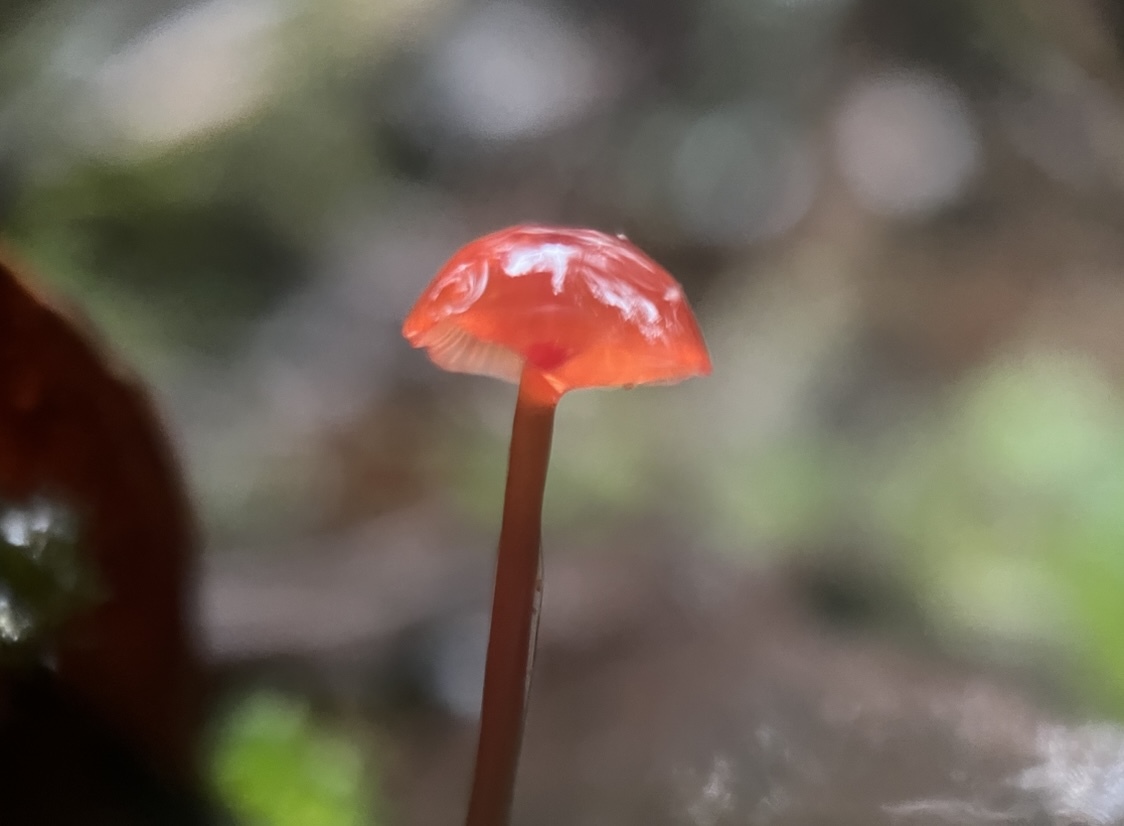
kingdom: Fungi
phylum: Basidiomycota
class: Agaricomycetes
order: Agaricales
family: Mycenaceae
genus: Cruentomycena
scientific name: Cruentomycena viscidocruenta
